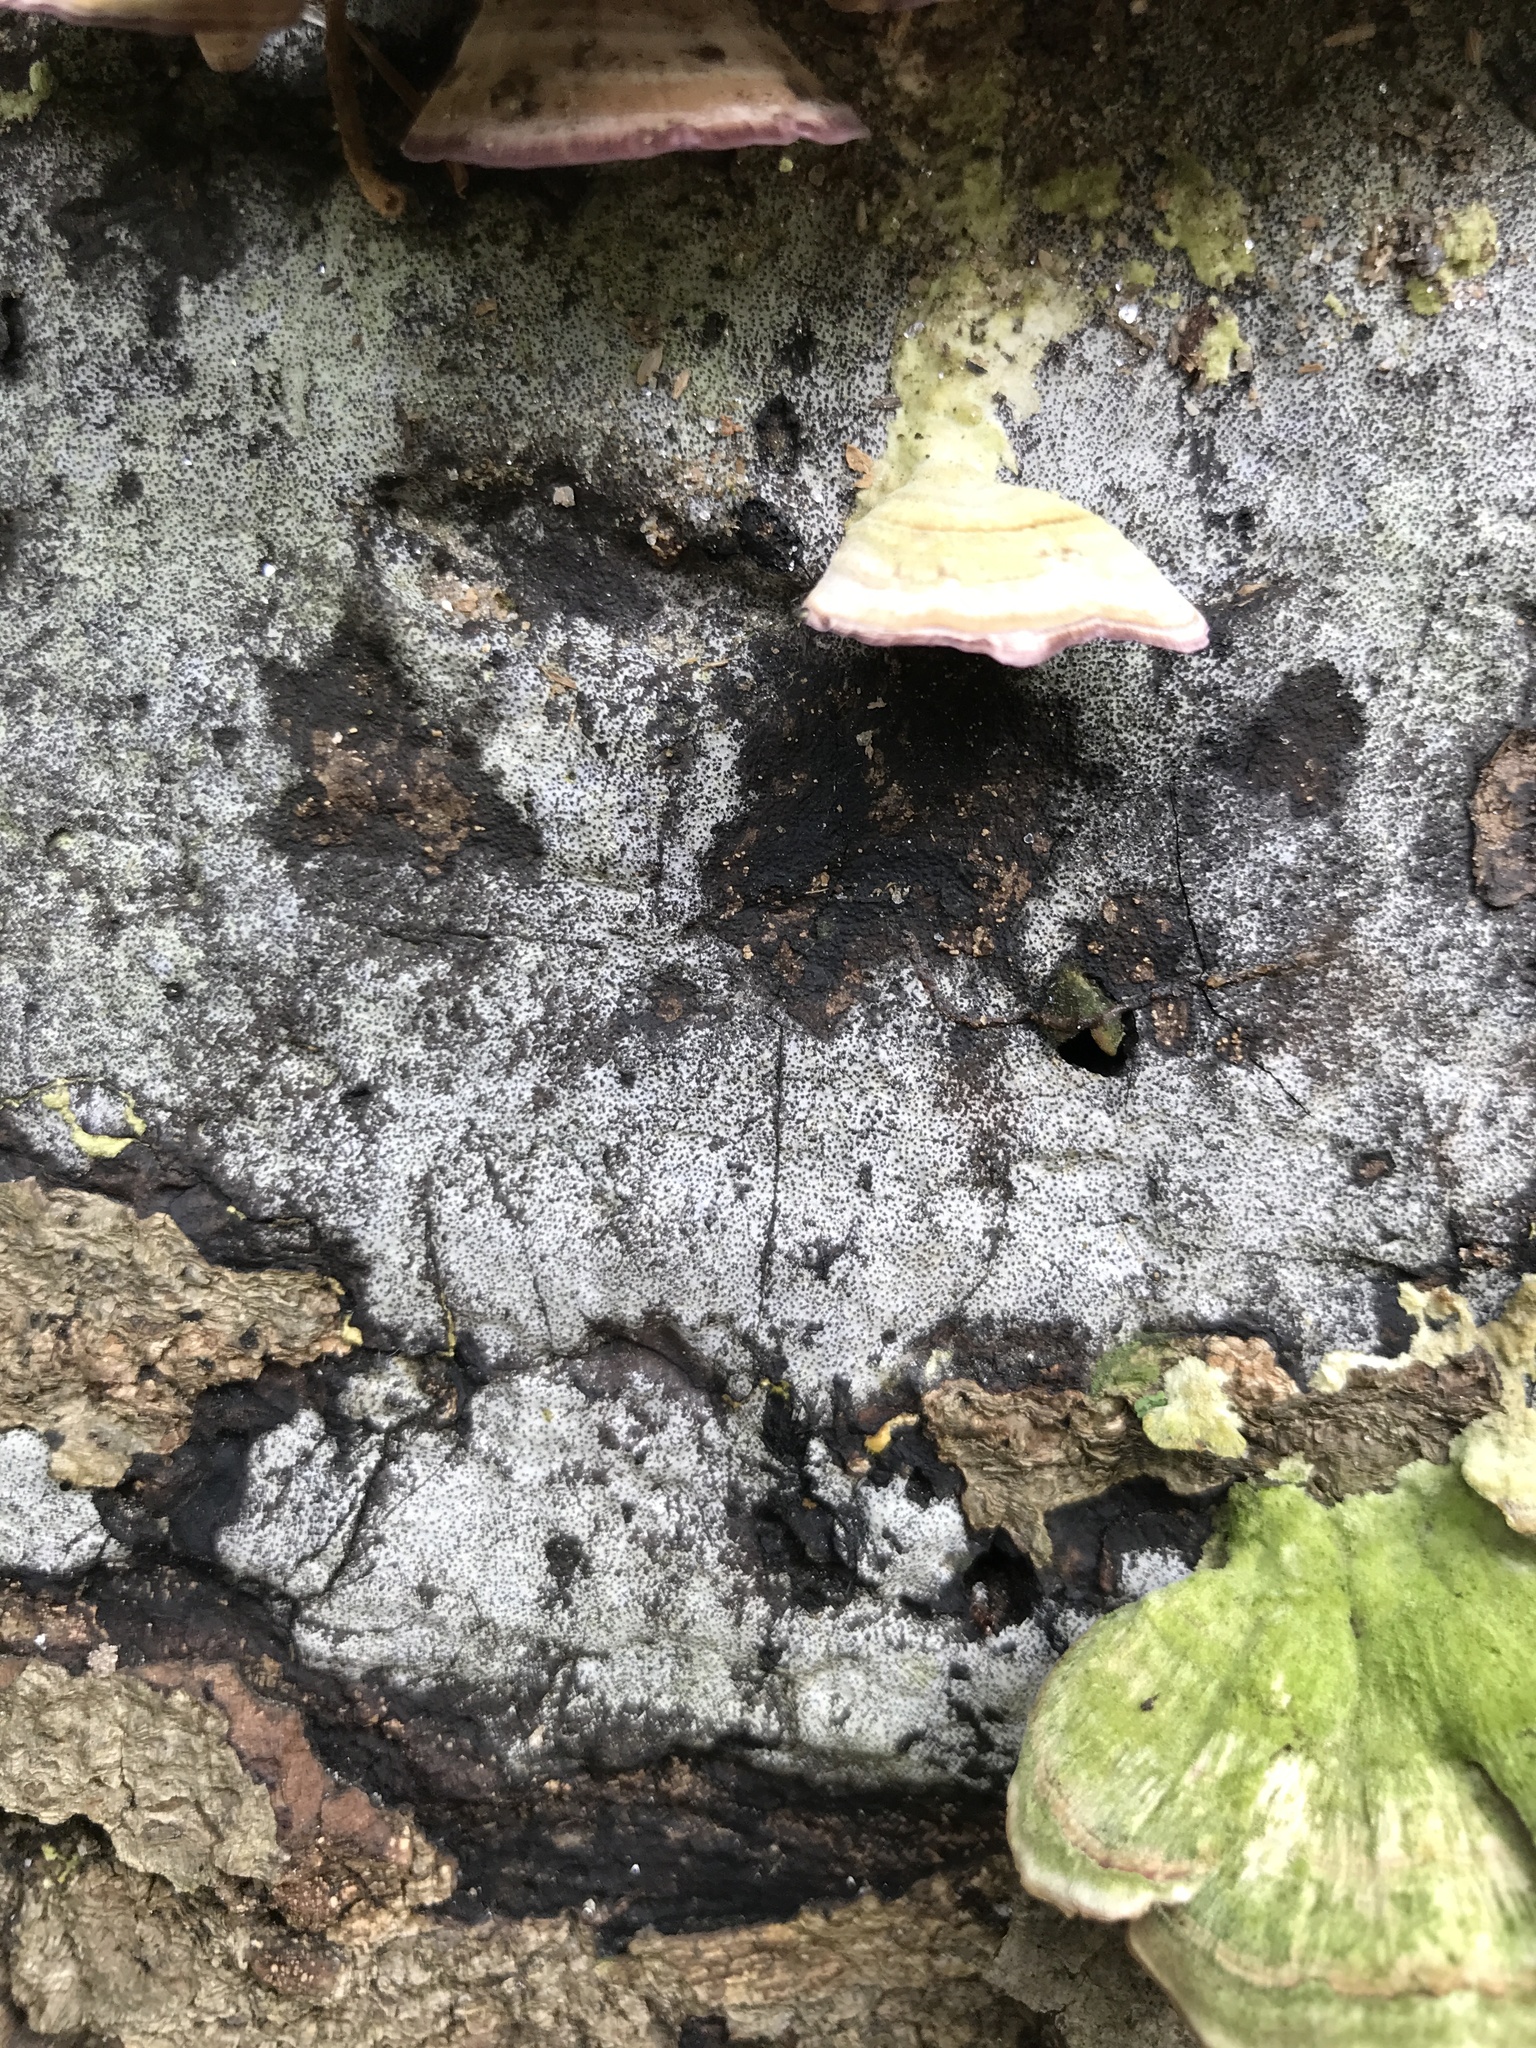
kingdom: Fungi
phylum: Ascomycota
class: Sordariomycetes
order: Xylariales
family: Graphostromataceae
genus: Biscogniauxia
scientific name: Biscogniauxia atropunctata
